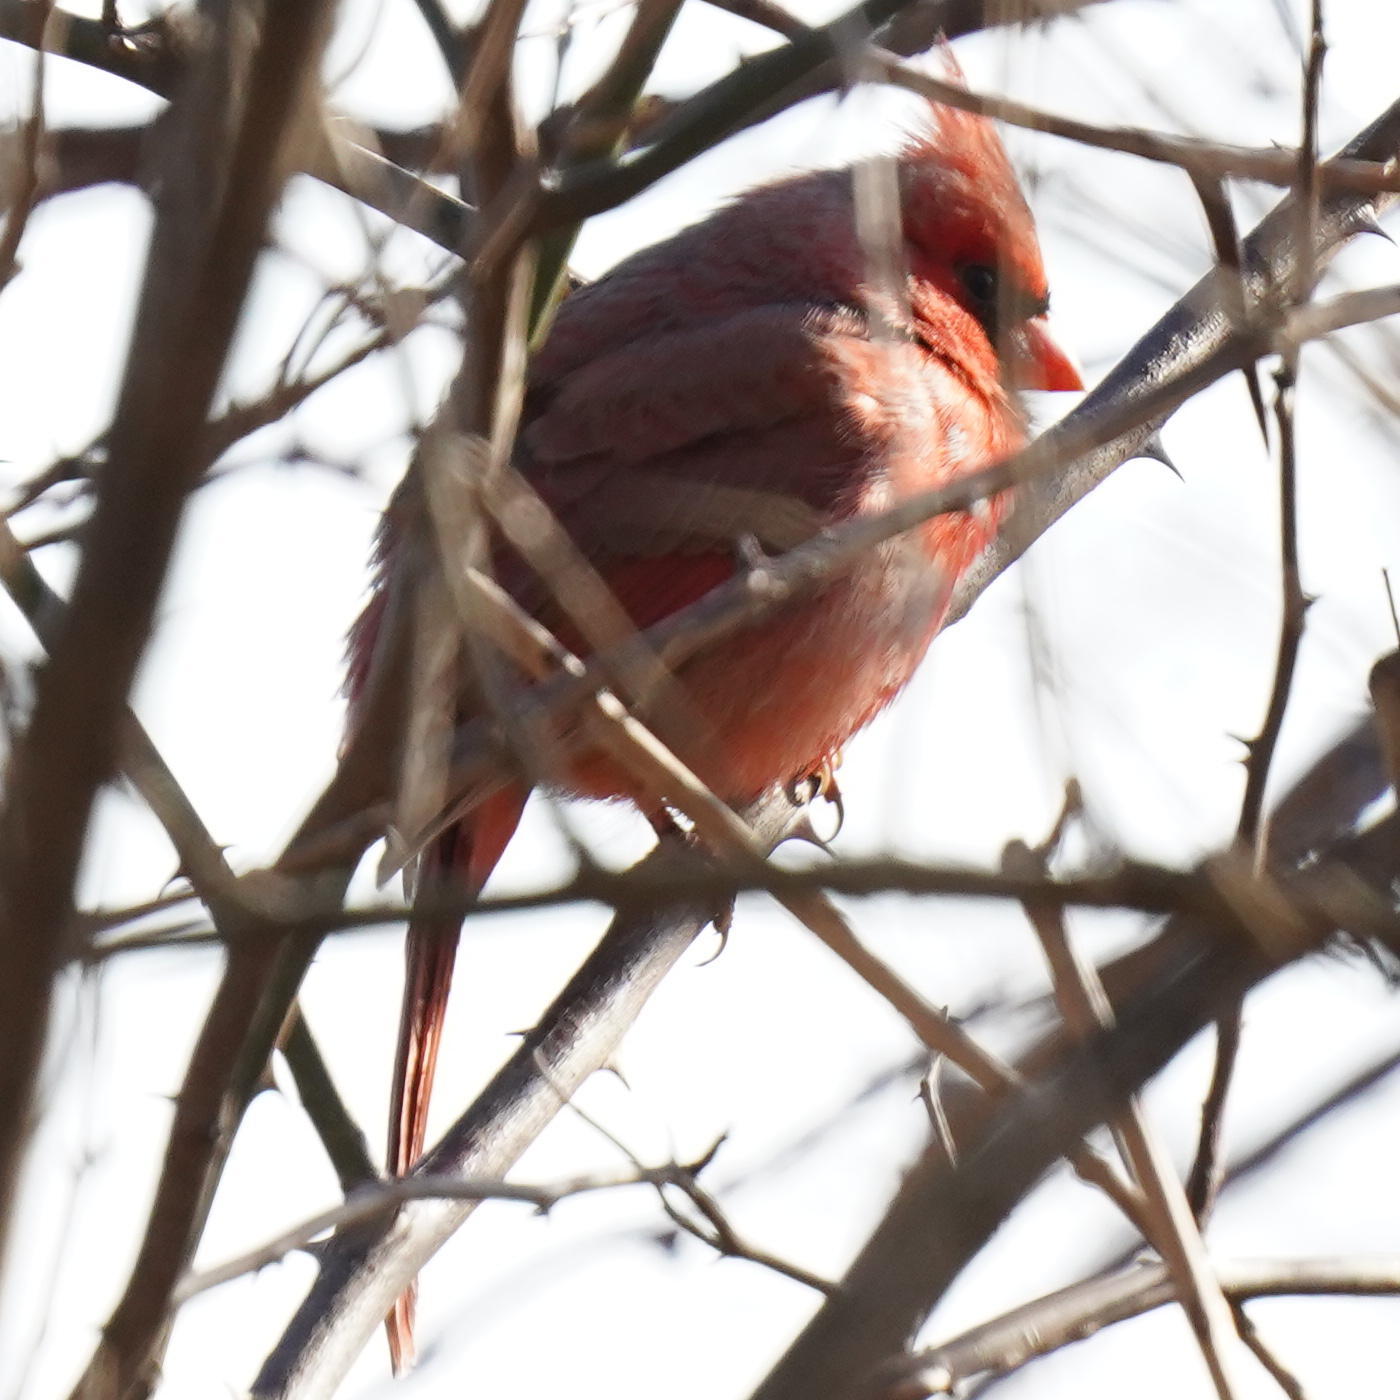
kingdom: Animalia
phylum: Chordata
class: Aves
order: Passeriformes
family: Cardinalidae
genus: Cardinalis
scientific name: Cardinalis cardinalis
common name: Northern cardinal
